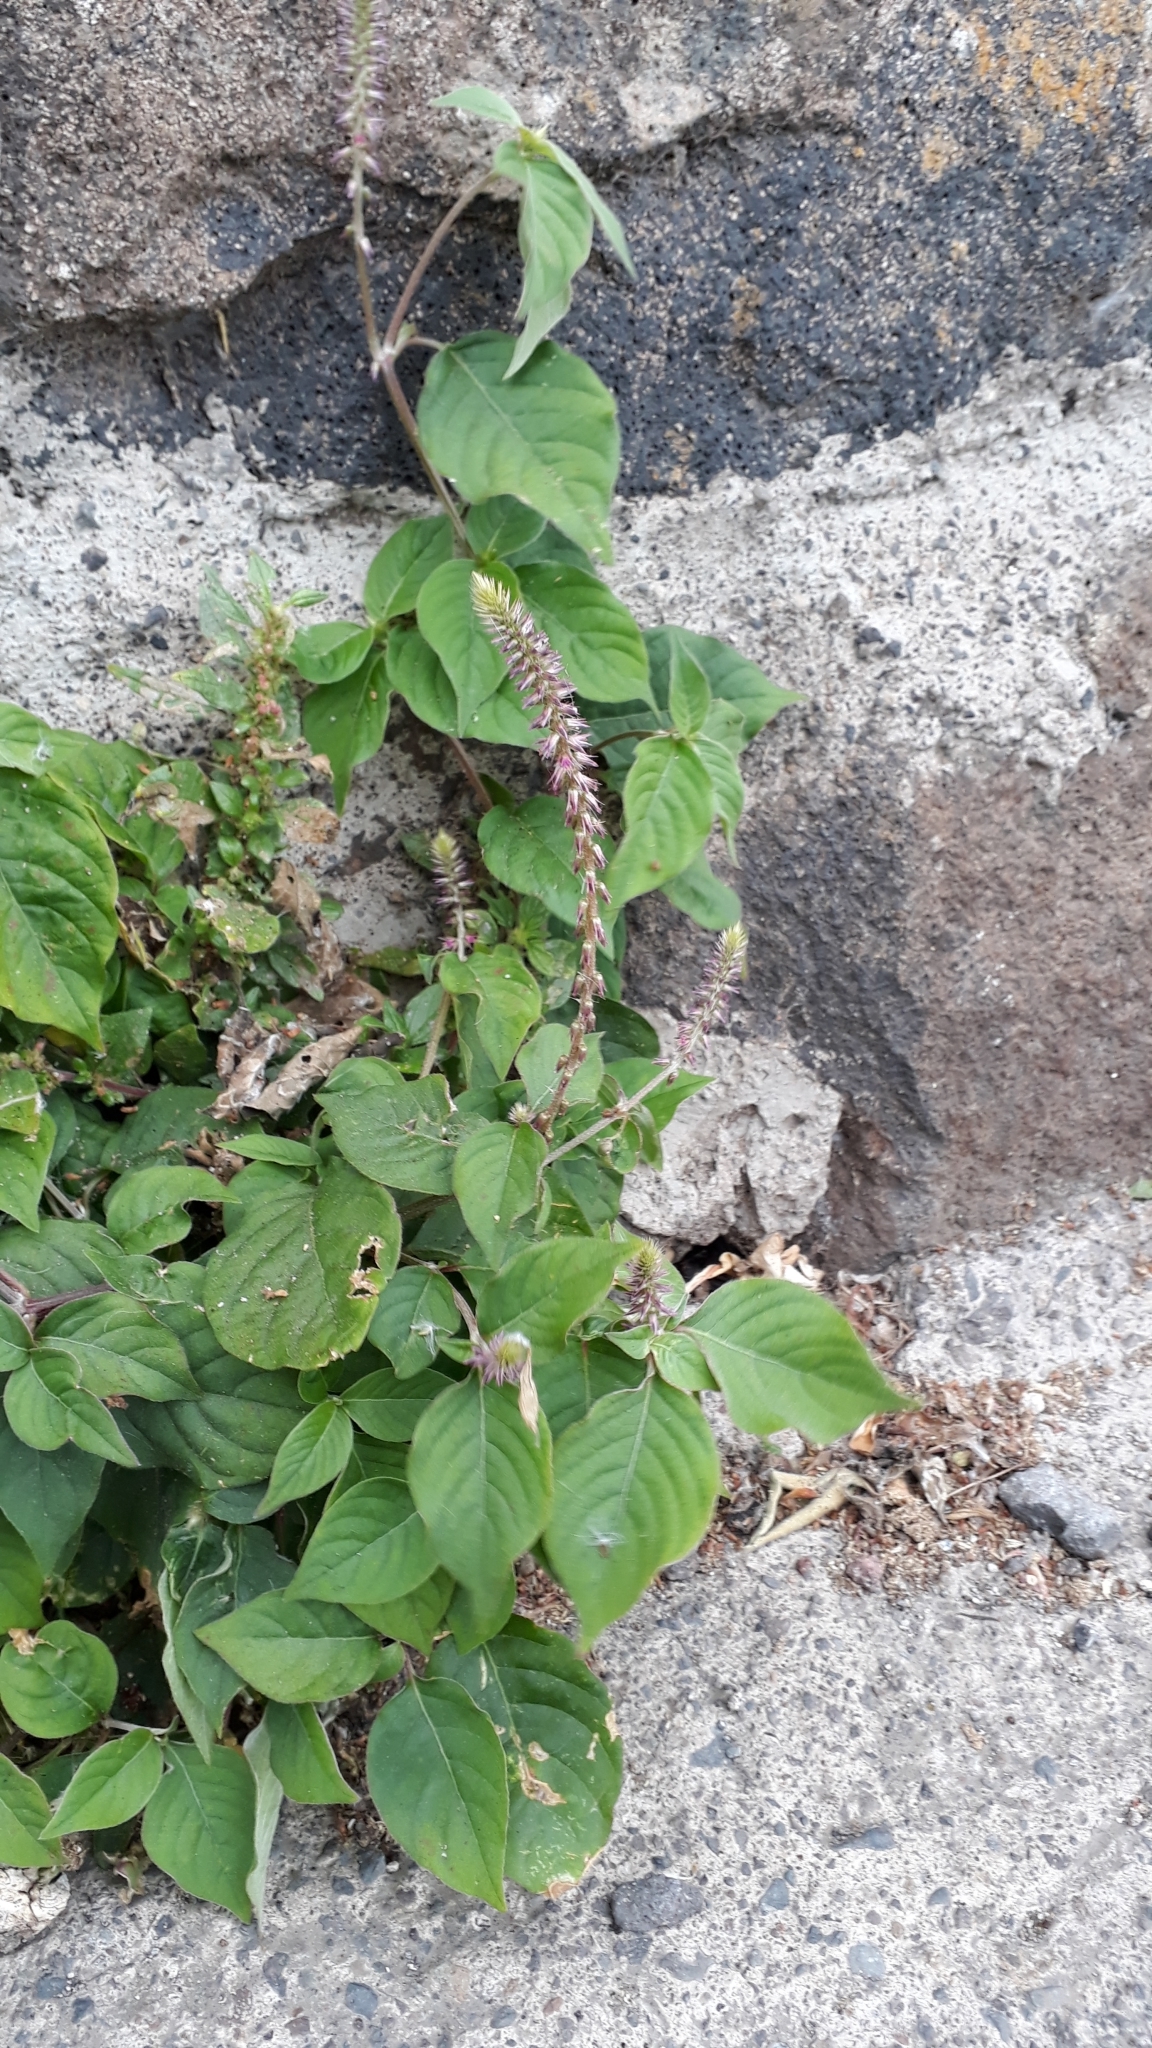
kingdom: Plantae
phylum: Tracheophyta
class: Magnoliopsida
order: Caryophyllales
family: Amaranthaceae
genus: Achyranthes
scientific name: Achyranthes aspera
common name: Devil's horsewhip
